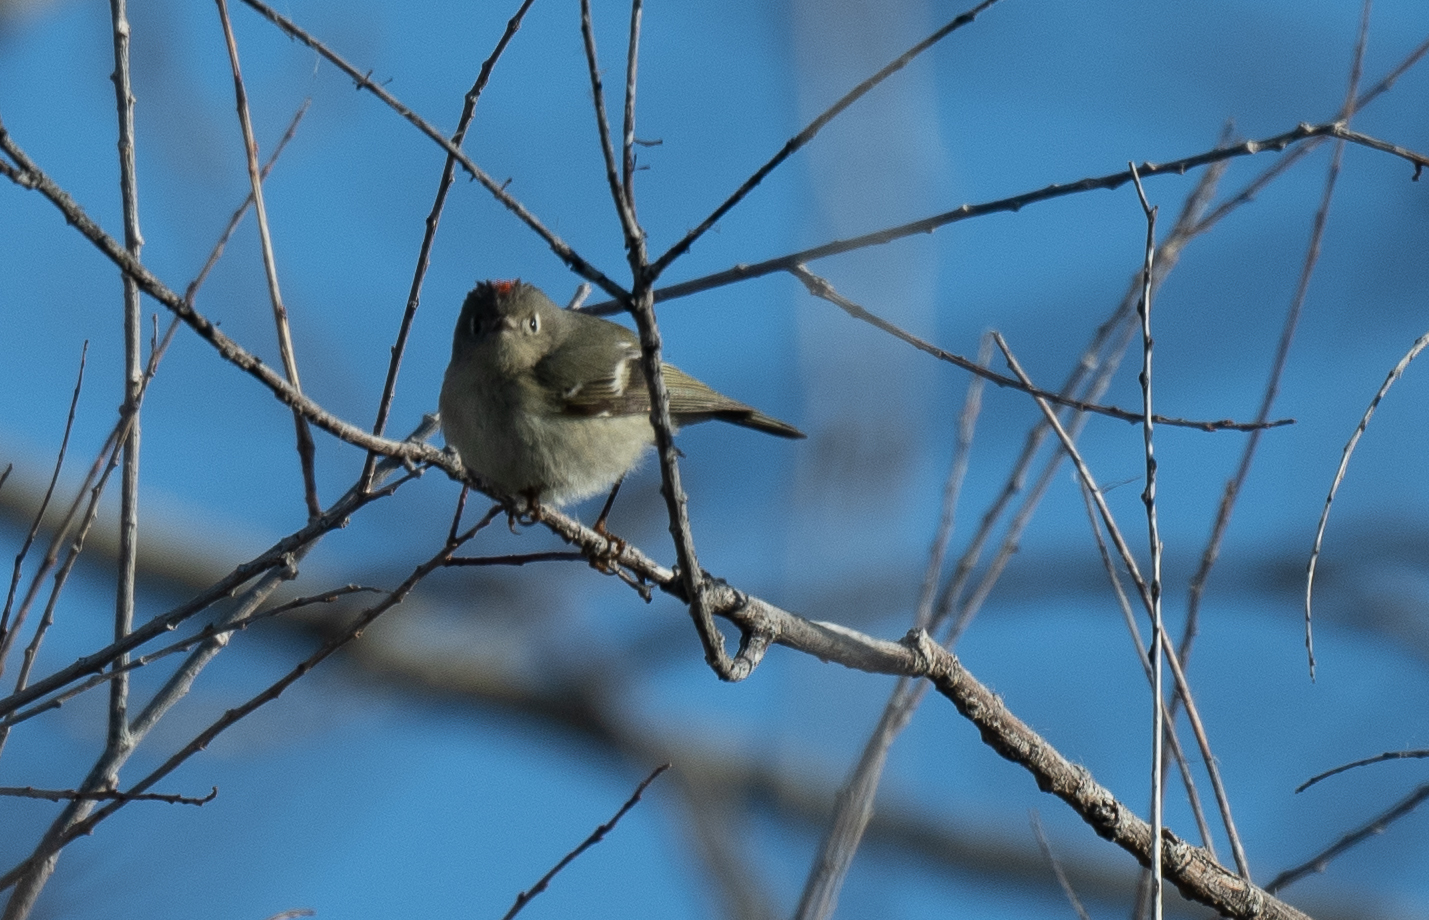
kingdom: Animalia
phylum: Chordata
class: Aves
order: Passeriformes
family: Regulidae
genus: Regulus
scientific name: Regulus calendula
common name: Ruby-crowned kinglet
